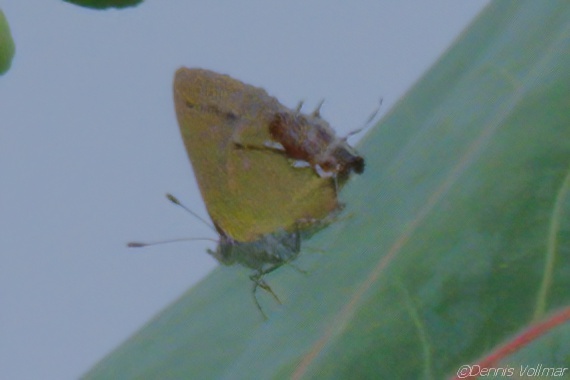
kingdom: Animalia
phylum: Arthropoda
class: Insecta
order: Lepidoptera
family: Lycaenidae
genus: Thecla
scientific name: Thecla maesites
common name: Verde azul hairstreak
